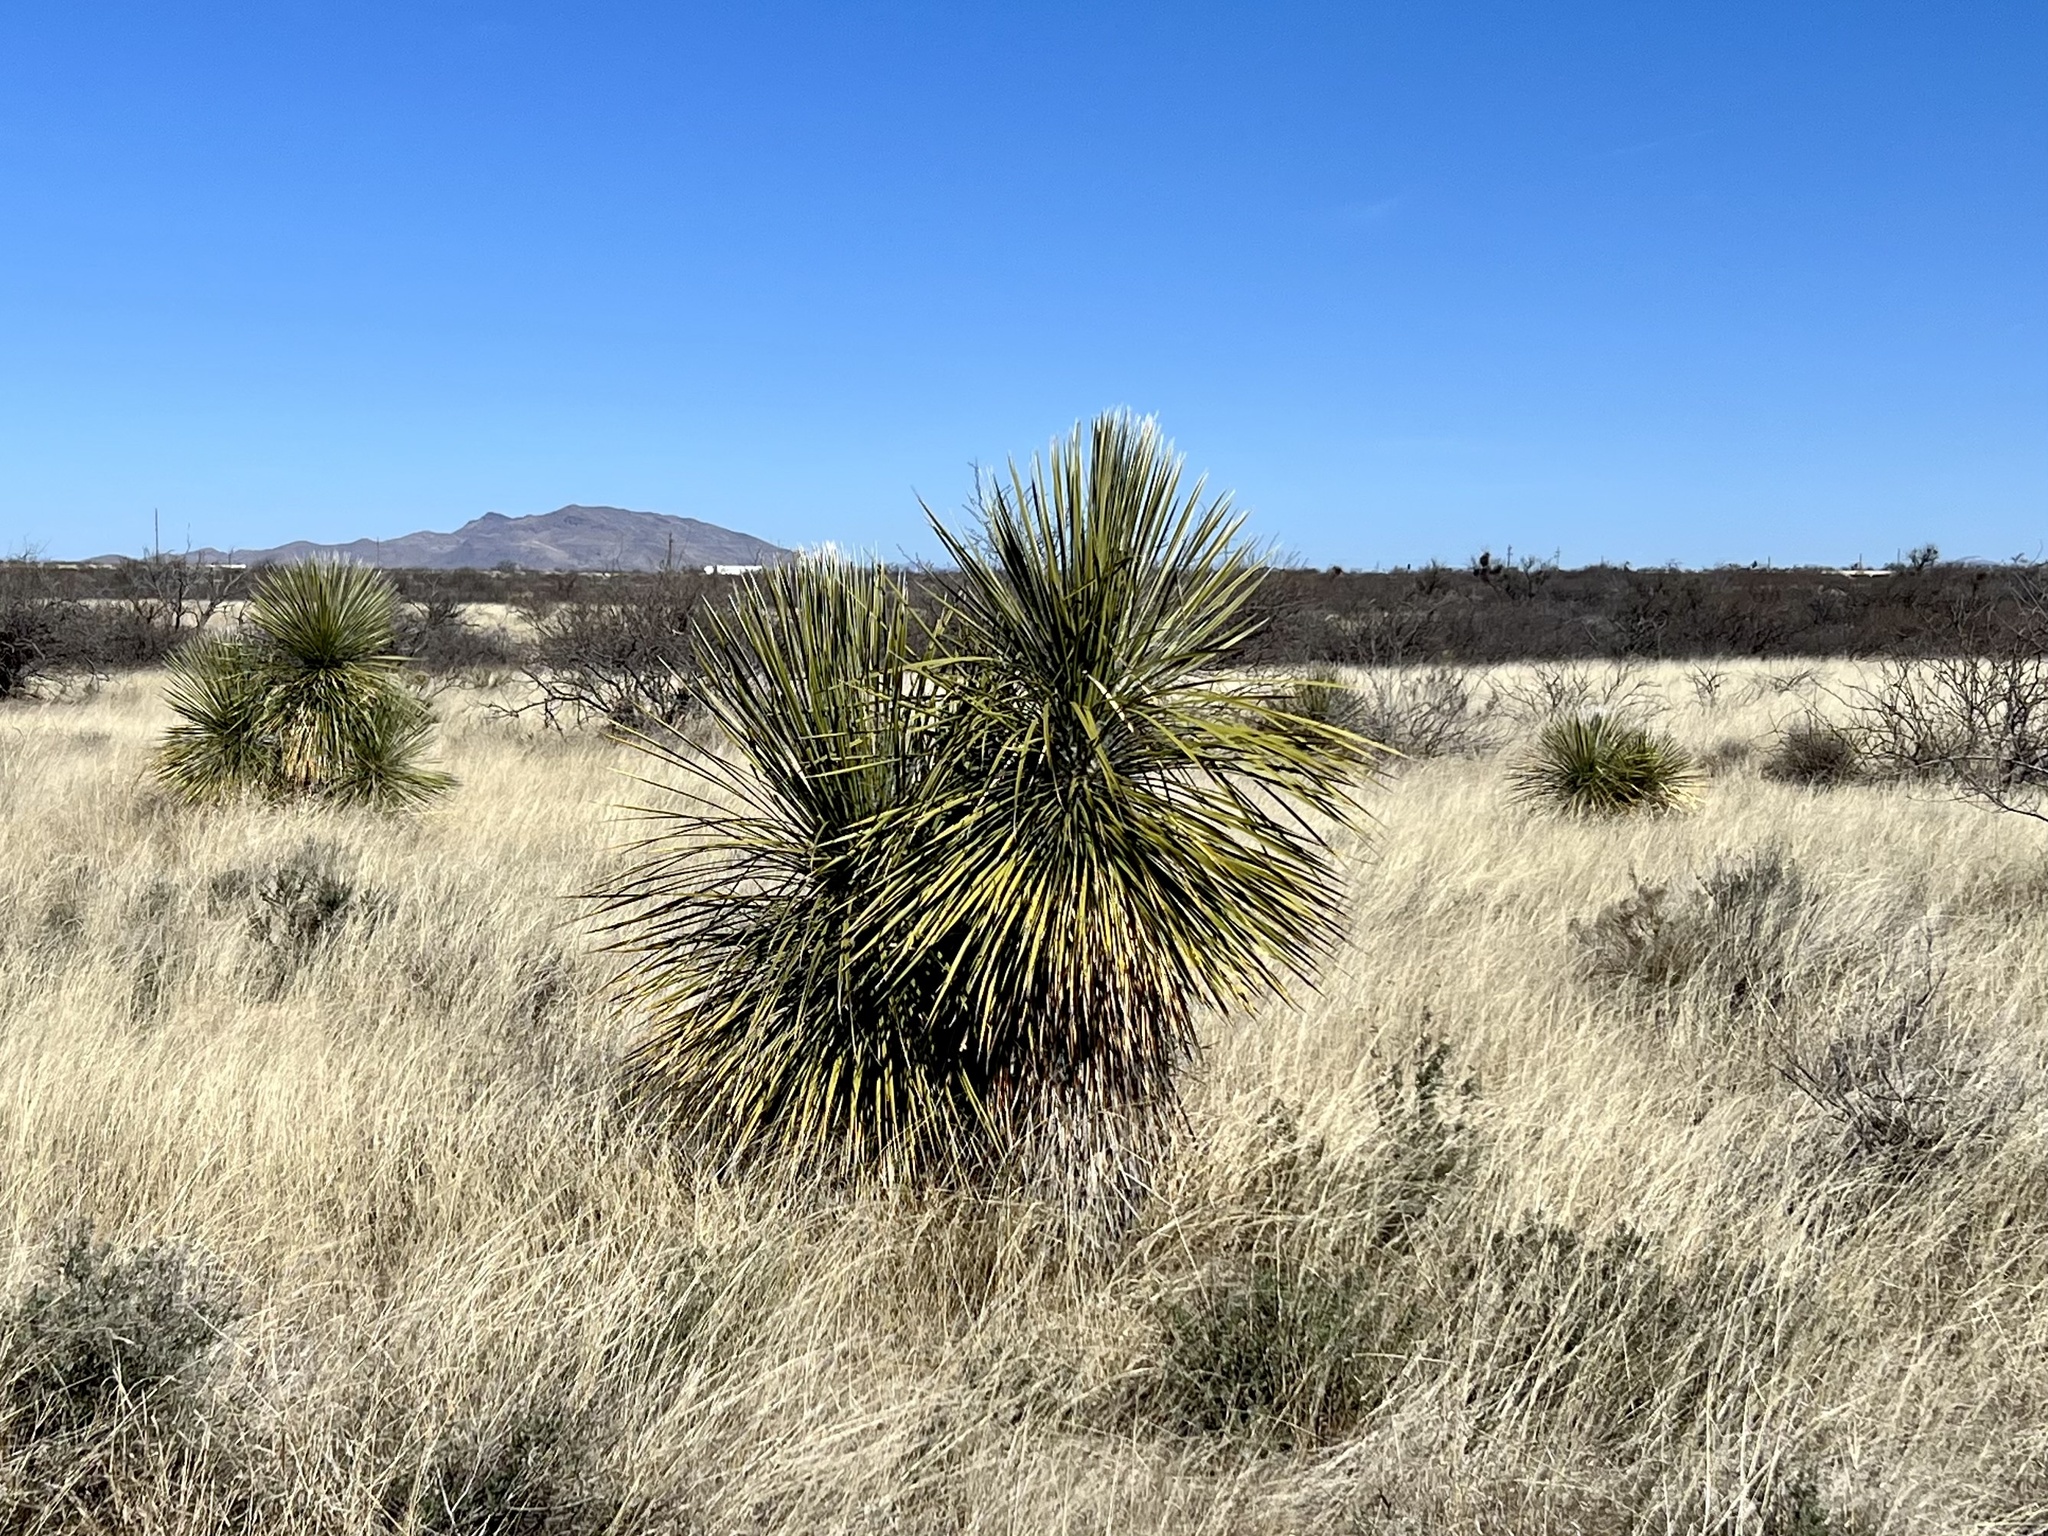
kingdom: Plantae
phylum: Tracheophyta
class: Liliopsida
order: Asparagales
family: Asparagaceae
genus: Yucca
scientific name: Yucca elata
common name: Palmella
